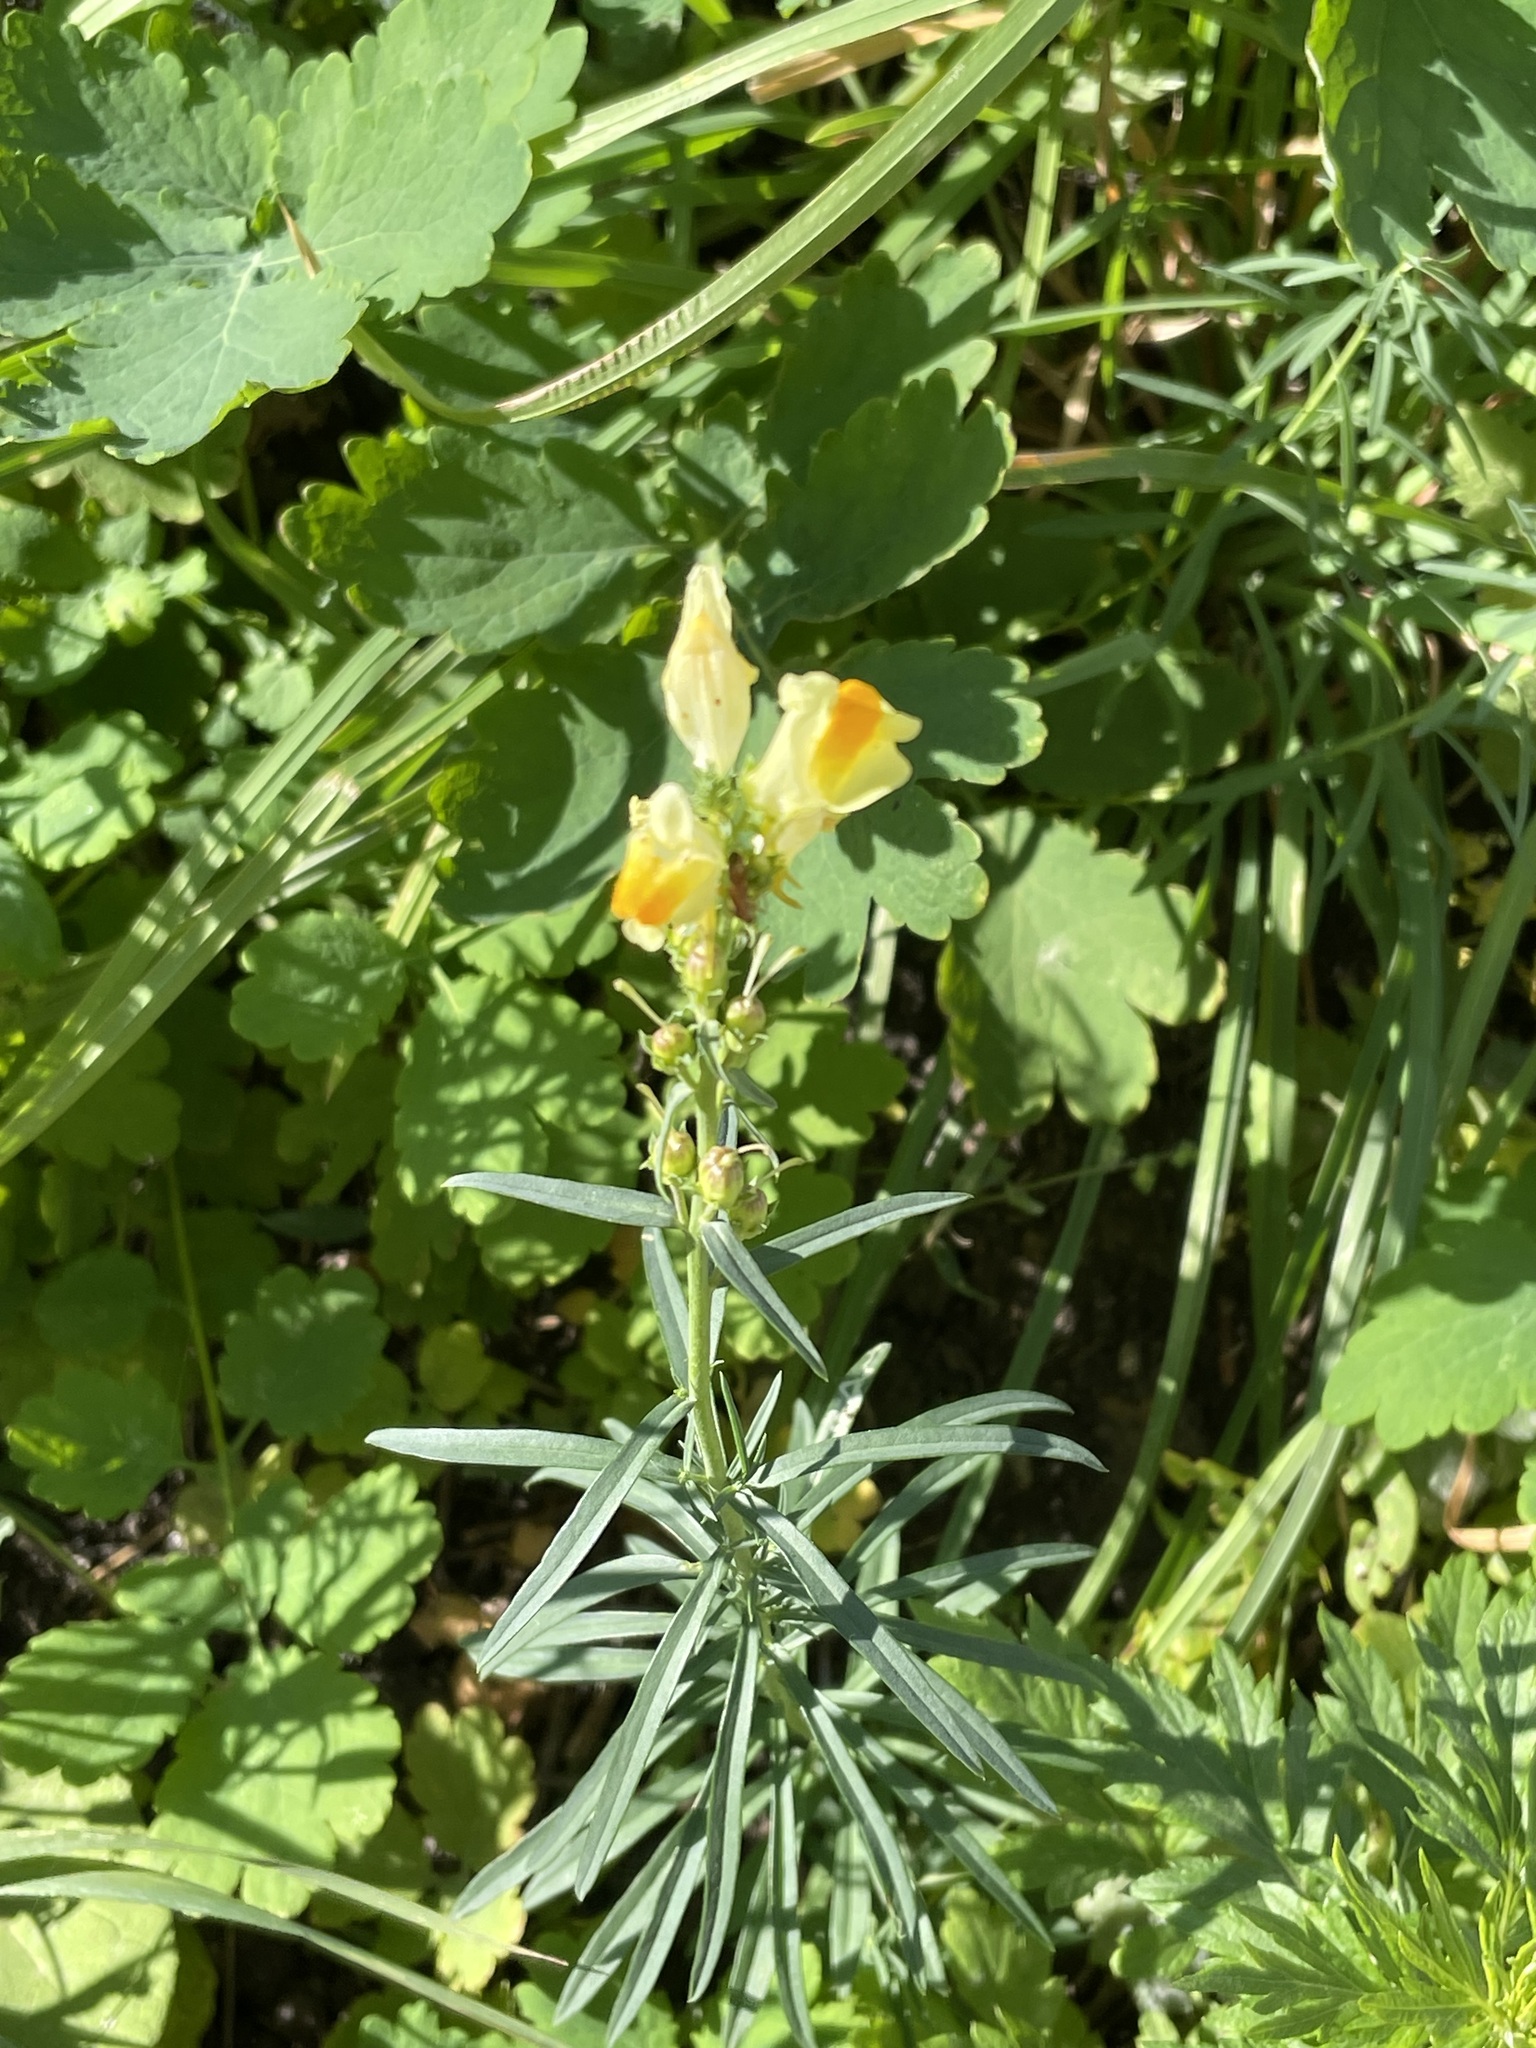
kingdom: Plantae
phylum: Tracheophyta
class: Magnoliopsida
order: Lamiales
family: Plantaginaceae
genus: Linaria
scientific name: Linaria vulgaris
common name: Butter and eggs
